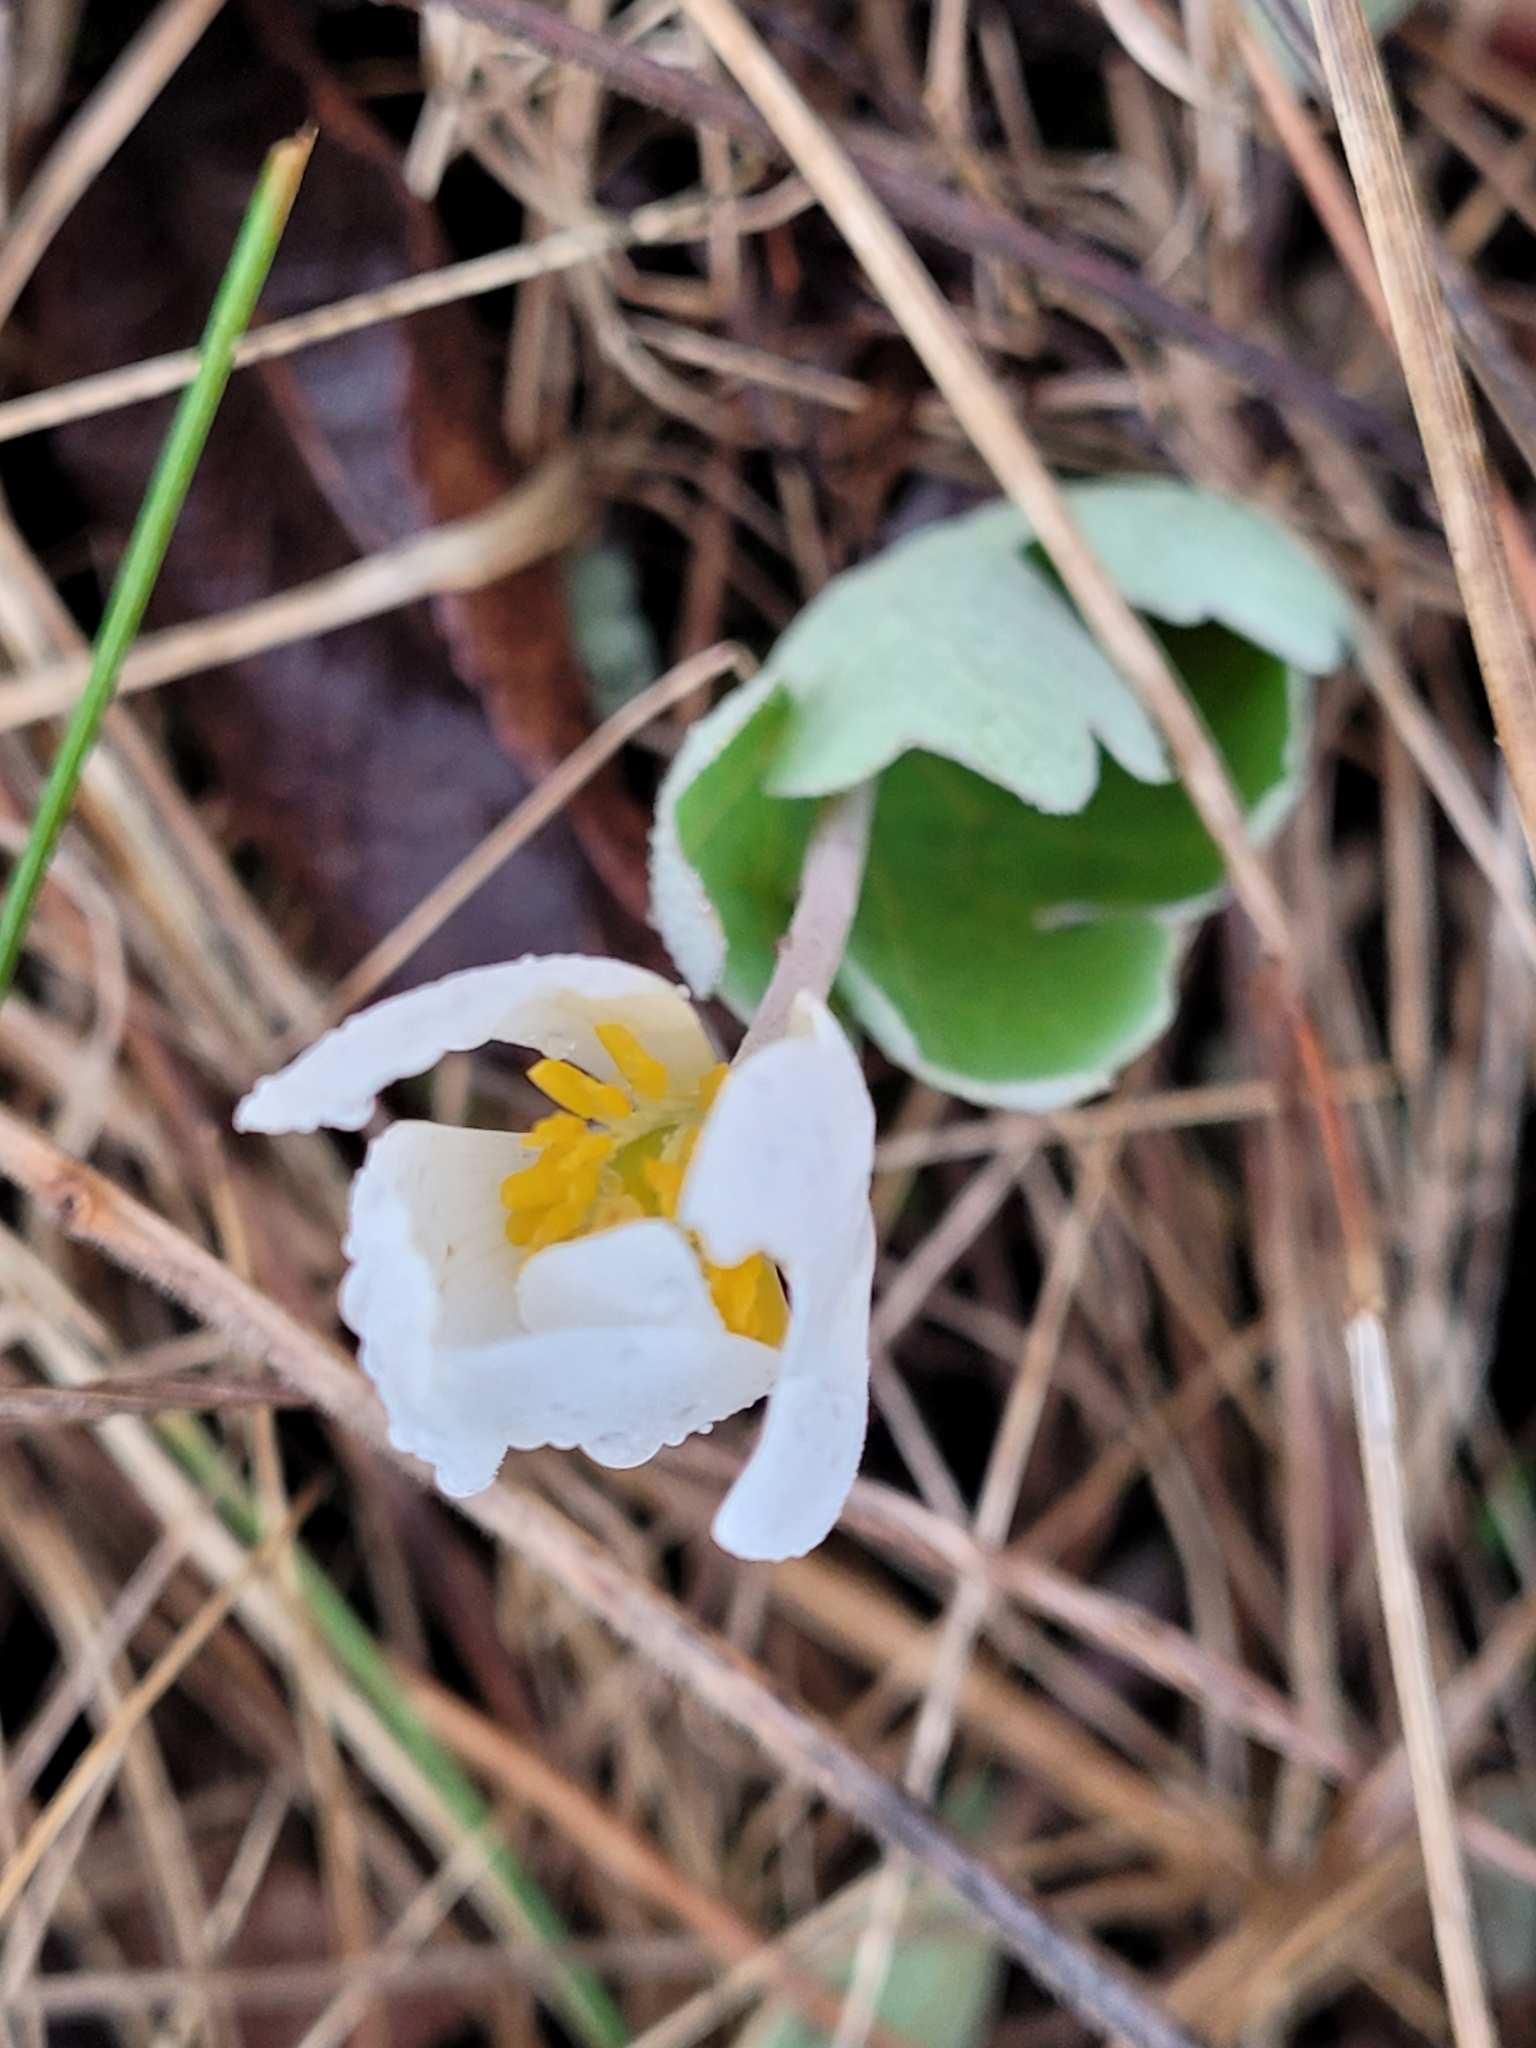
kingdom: Plantae
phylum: Tracheophyta
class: Magnoliopsida
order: Ranunculales
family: Papaveraceae
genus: Sanguinaria
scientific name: Sanguinaria canadensis
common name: Bloodroot
